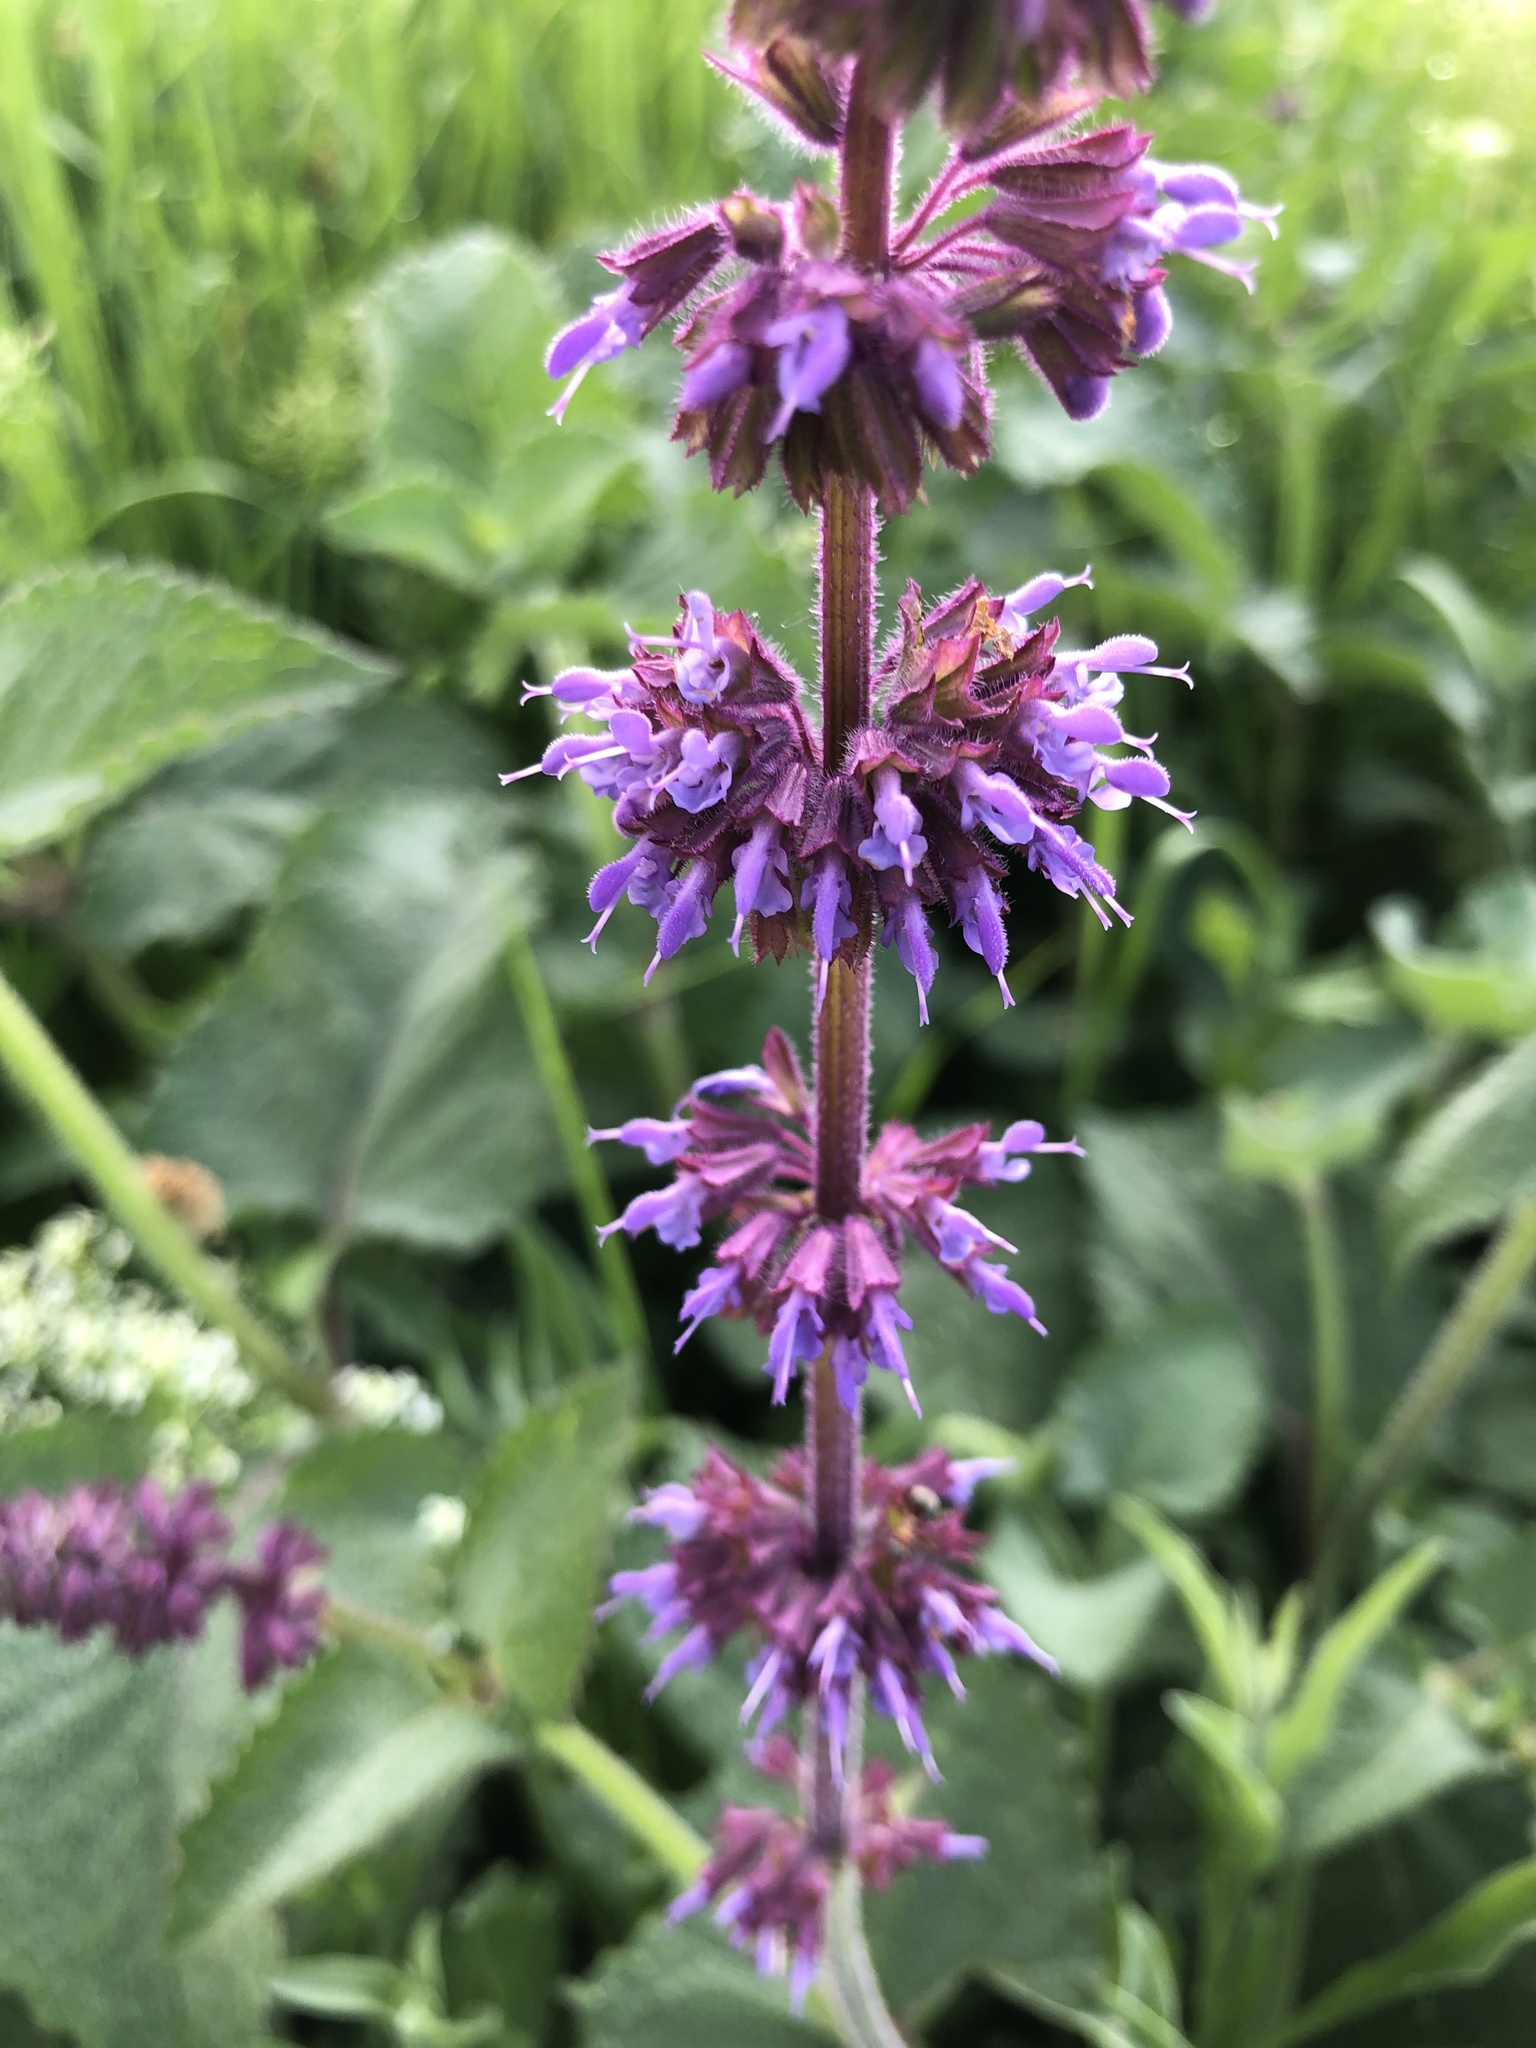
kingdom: Plantae
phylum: Tracheophyta
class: Magnoliopsida
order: Lamiales
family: Lamiaceae
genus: Salvia
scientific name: Salvia verticillata
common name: Whorled clary
